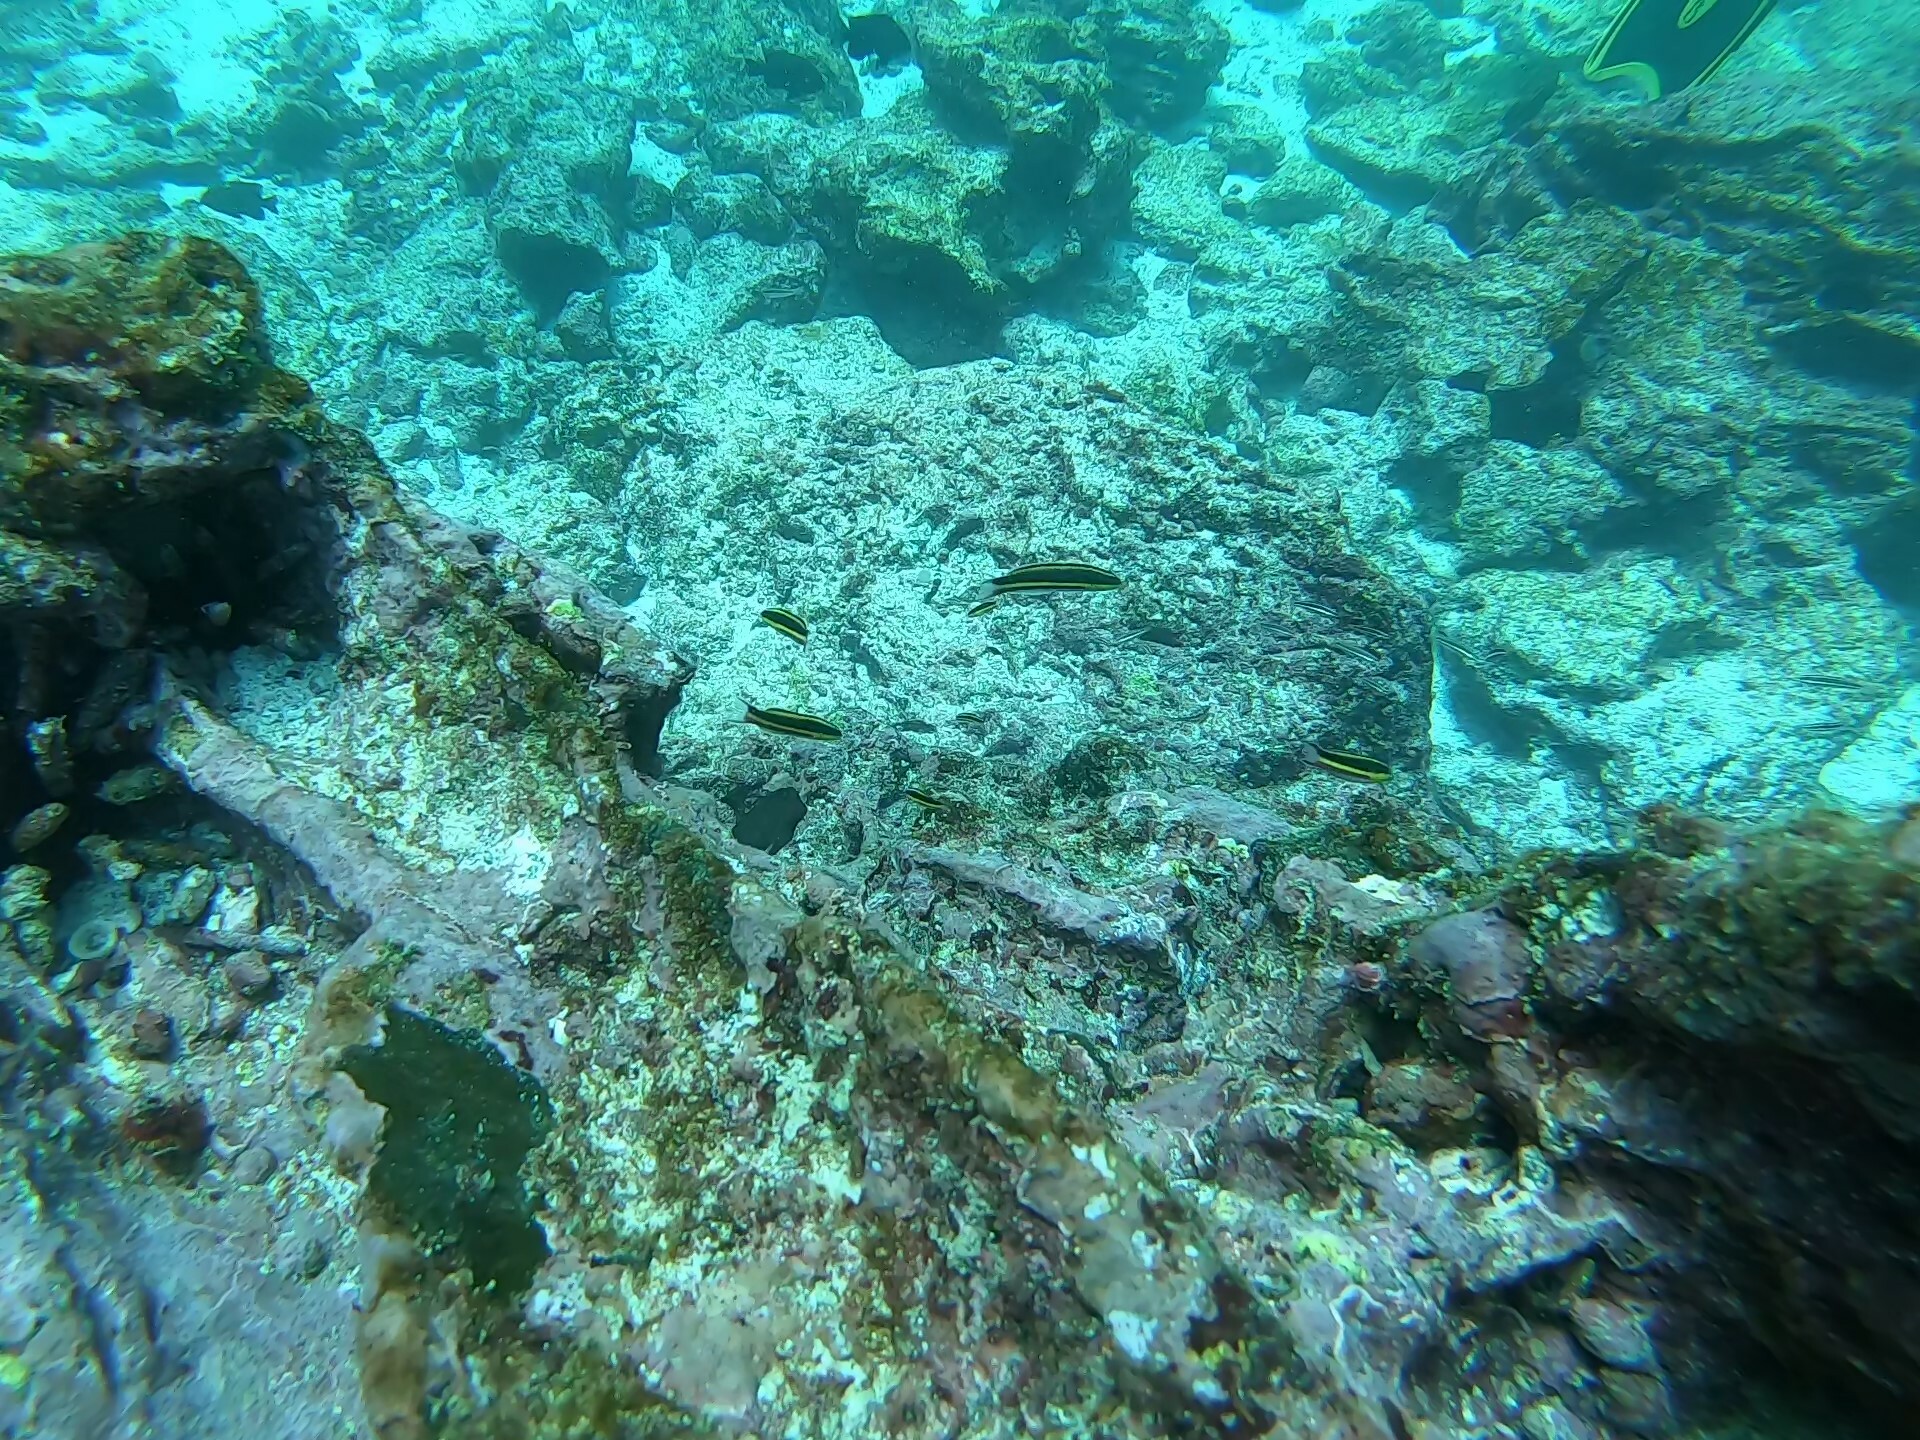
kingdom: Animalia
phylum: Chordata
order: Perciformes
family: Labridae
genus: Thalassoma
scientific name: Thalassoma lucasanum
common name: Cortez rainbow wrasse
